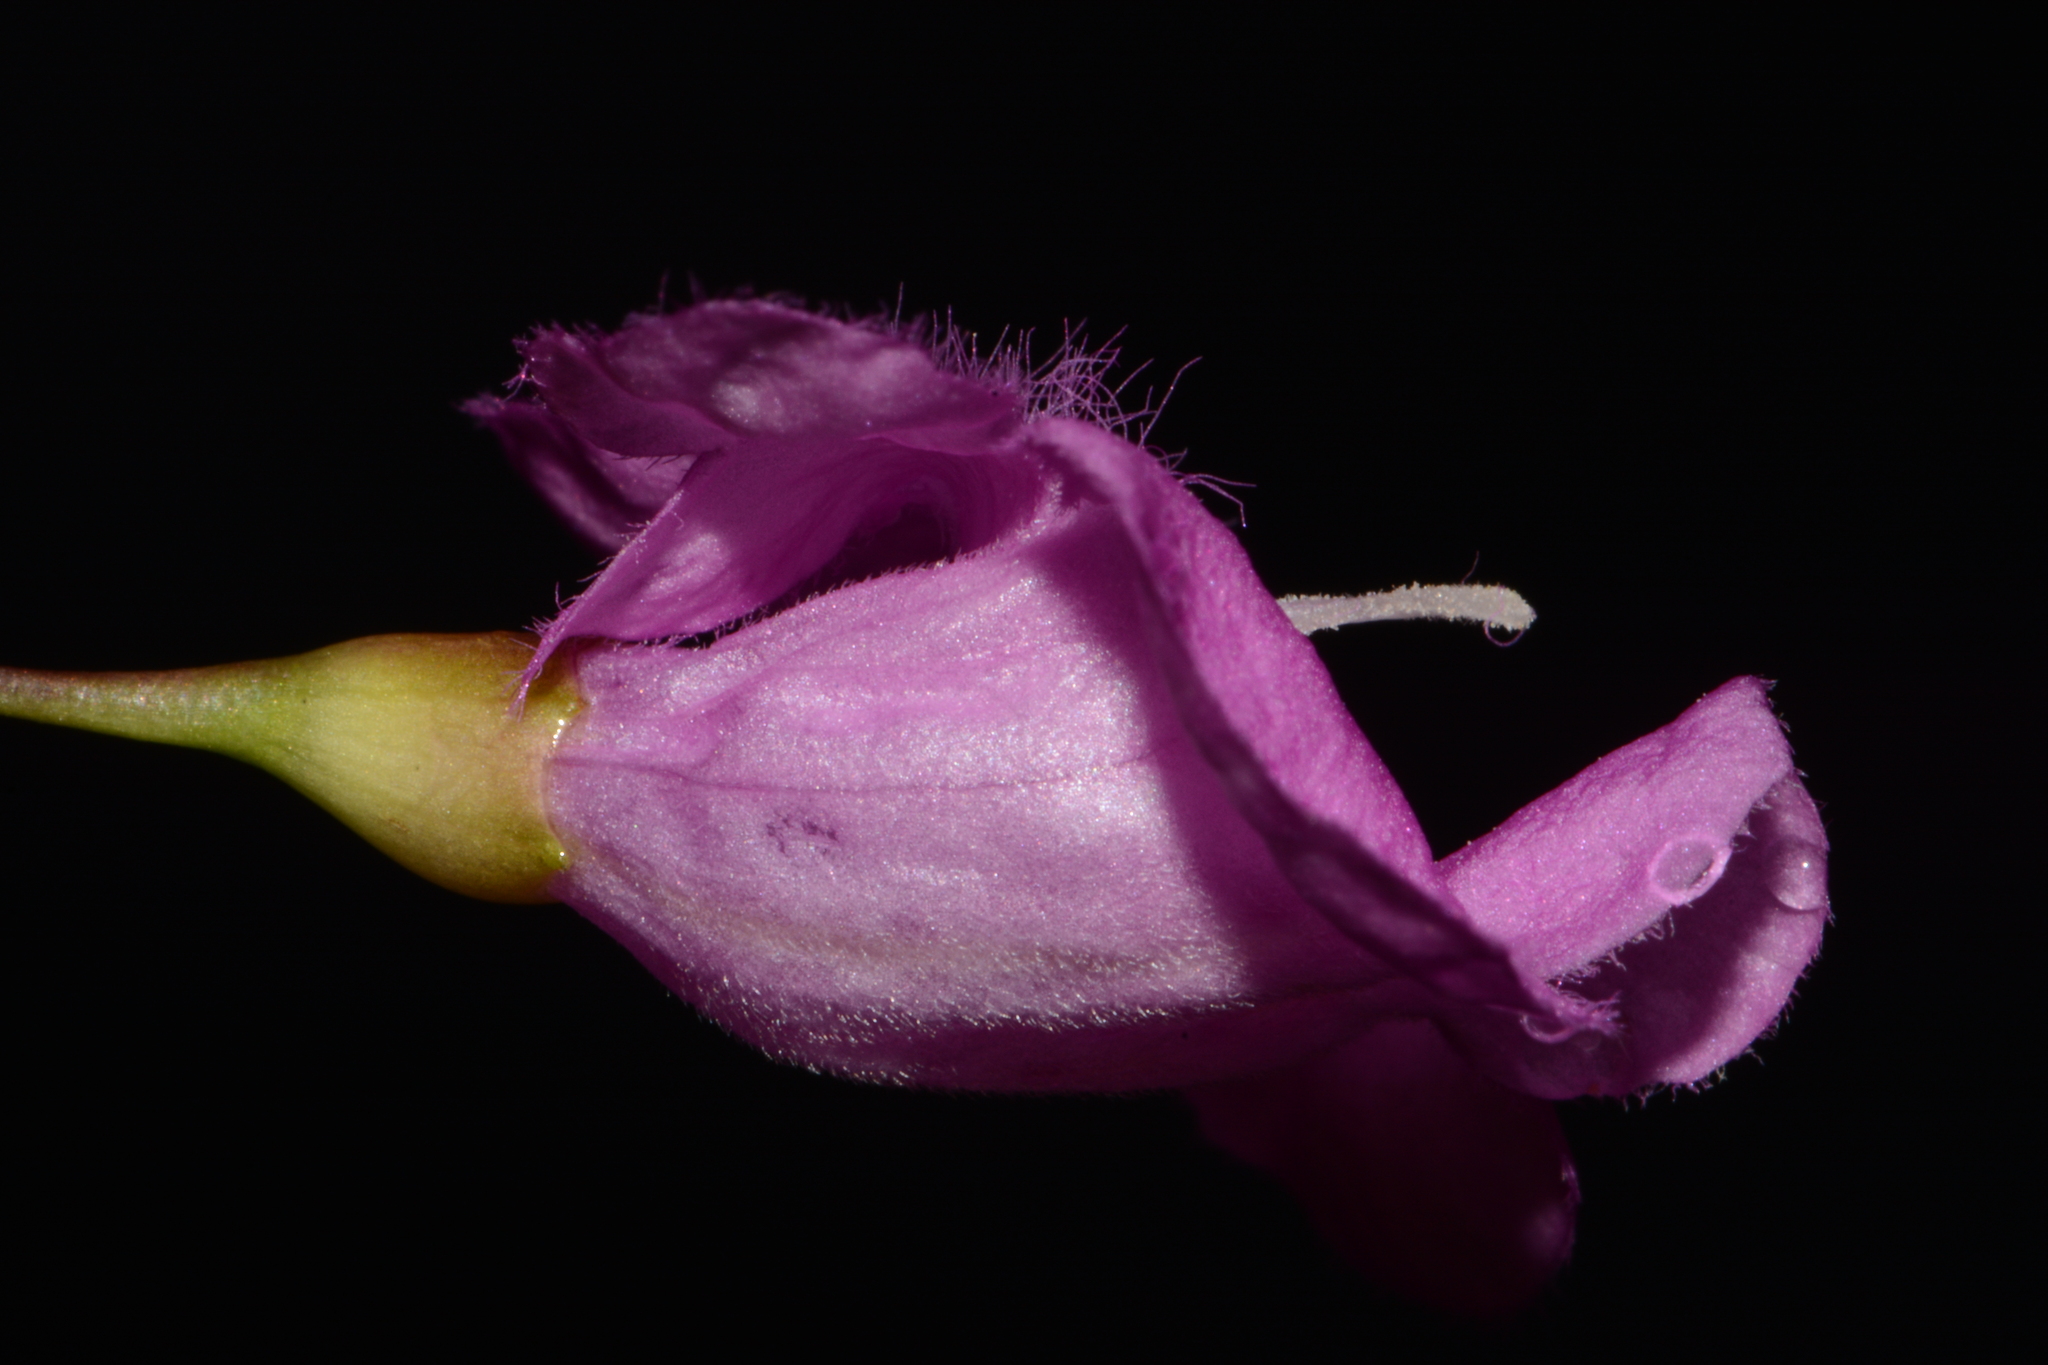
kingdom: Plantae
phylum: Tracheophyta
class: Magnoliopsida
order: Lamiales
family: Orobanchaceae
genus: Agalinis
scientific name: Agalinis oligophylla
